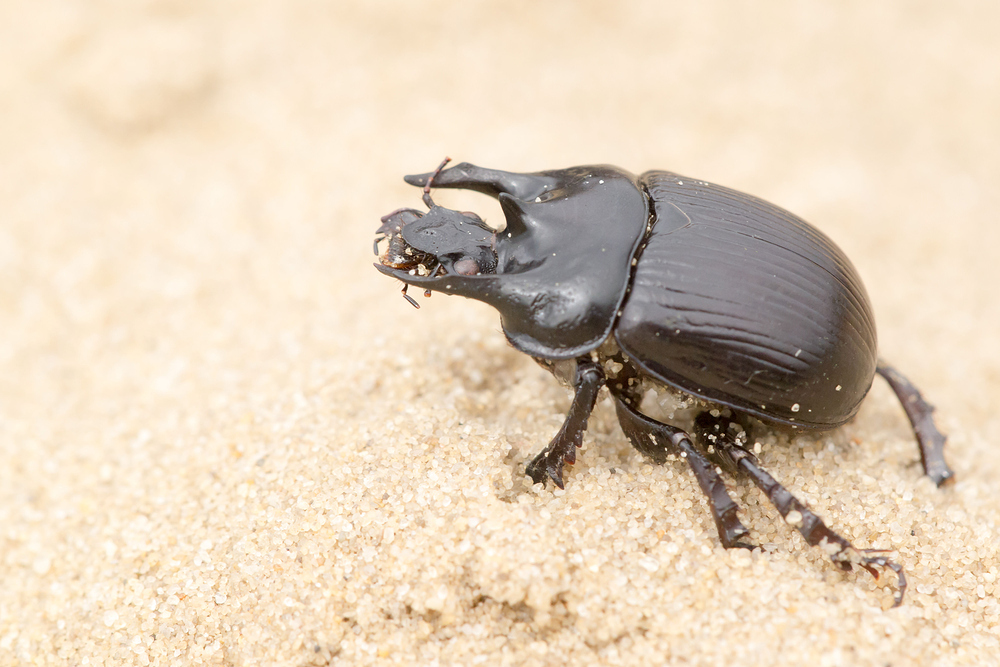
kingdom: Animalia
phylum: Arthropoda
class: Insecta
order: Coleoptera
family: Geotrupidae
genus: Typhaeus
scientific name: Typhaeus typhoeus
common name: Minotaur beetle
